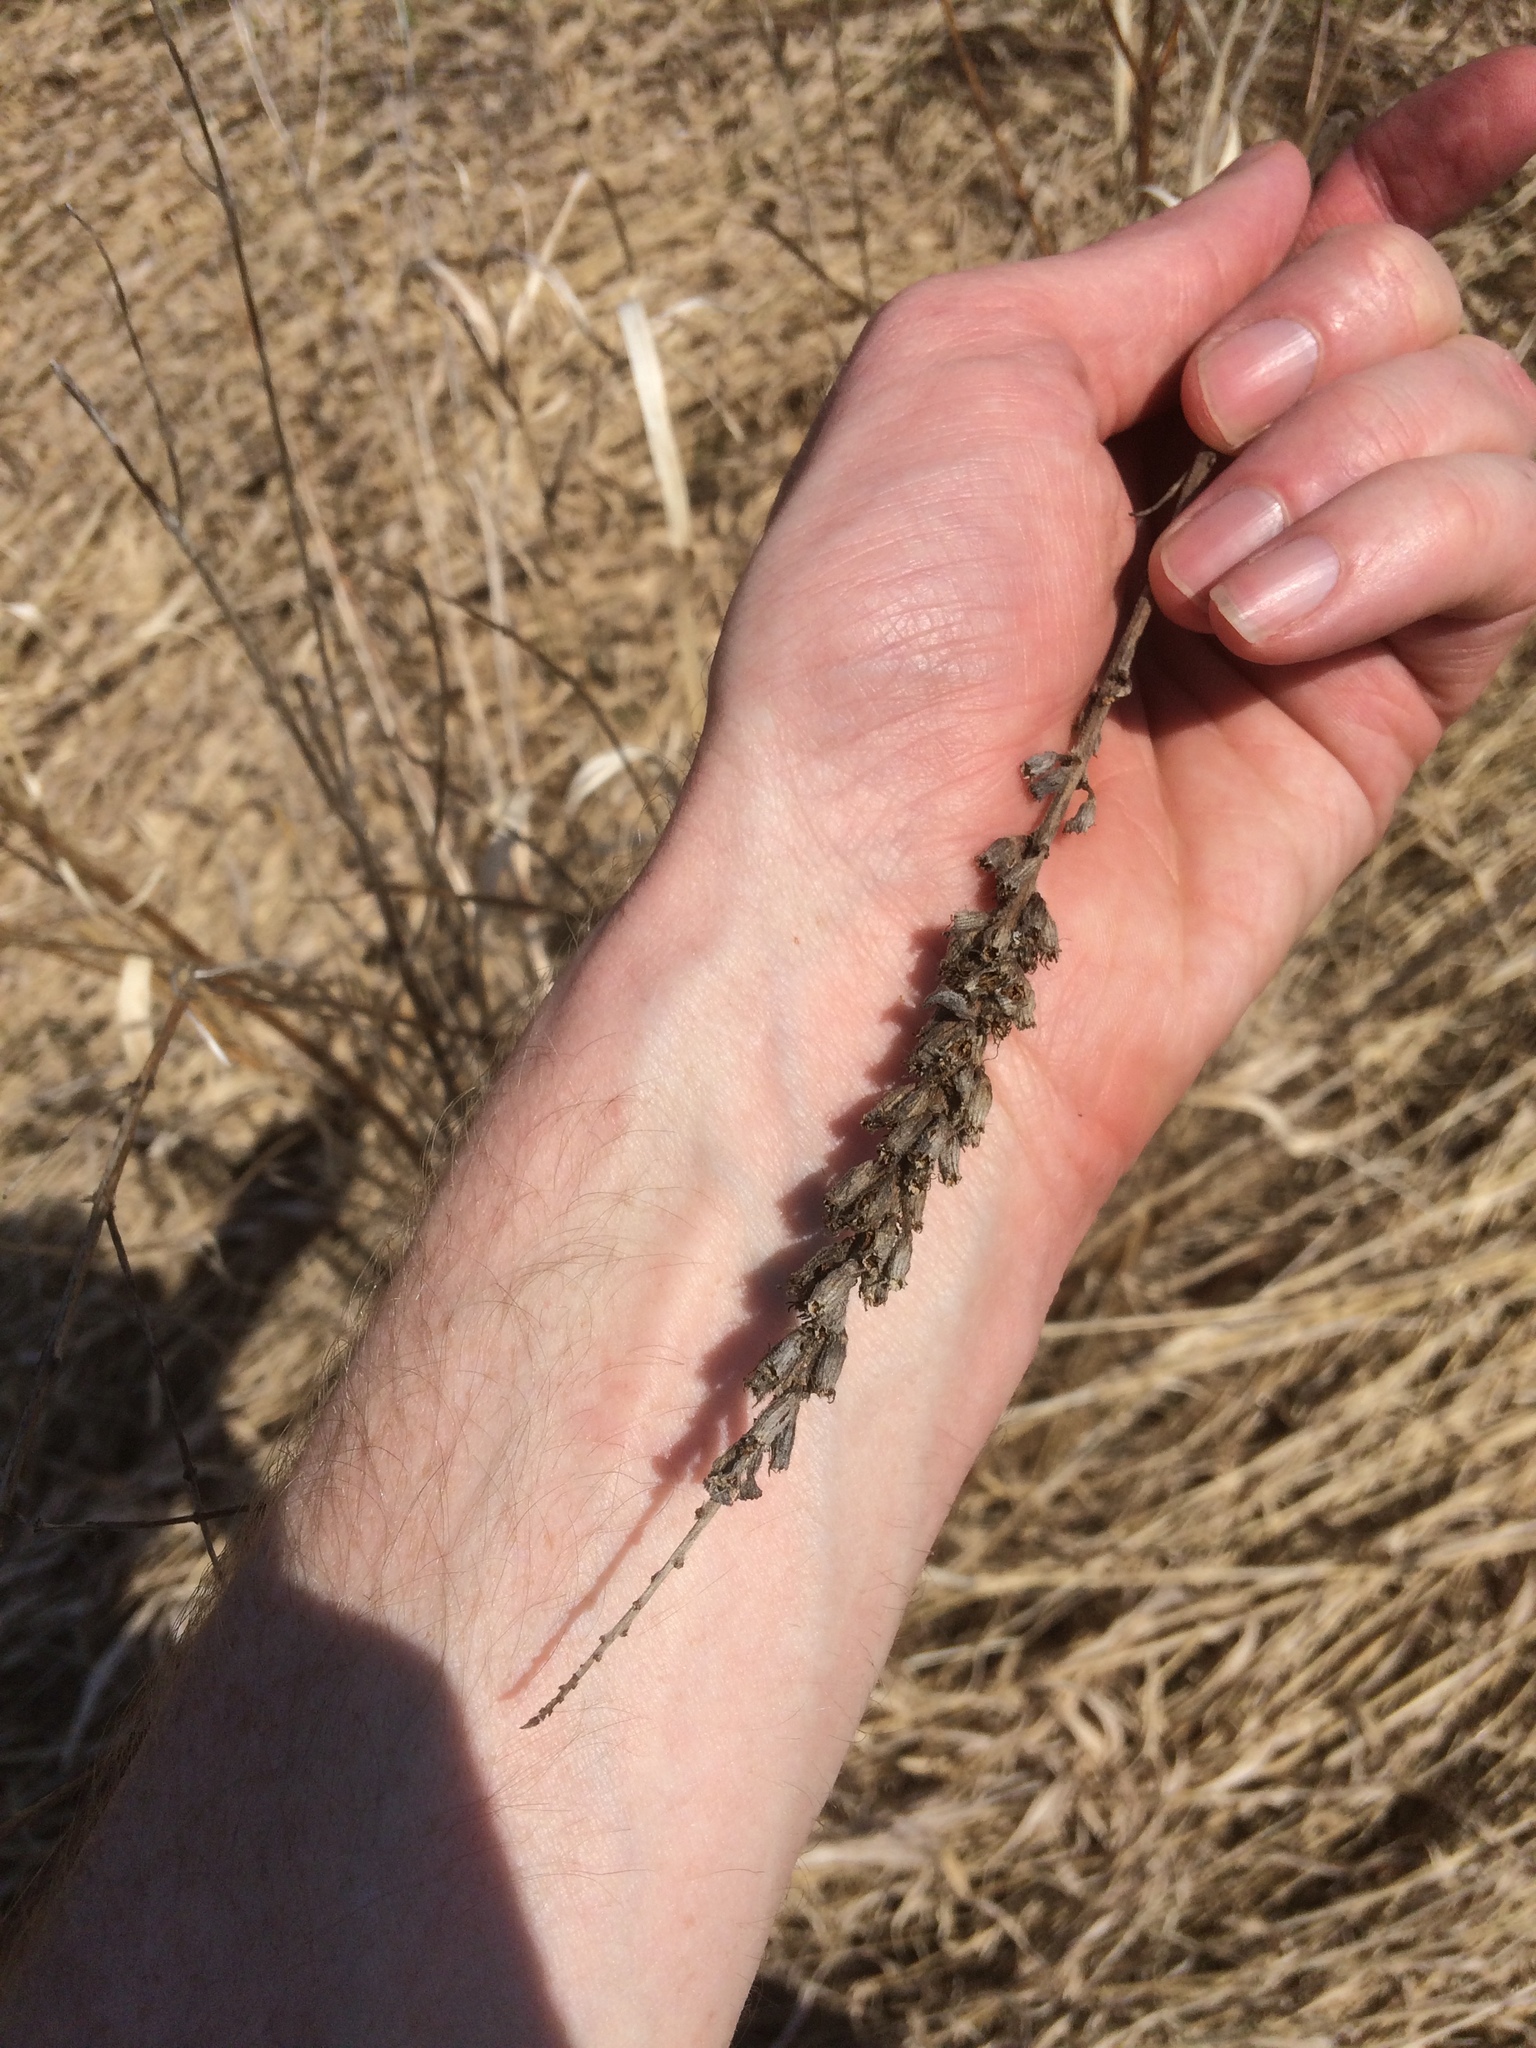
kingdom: Plantae
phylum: Tracheophyta
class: Magnoliopsida
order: Myrtales
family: Lythraceae
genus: Lythrum
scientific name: Lythrum salicaria
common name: Purple loosestrife
